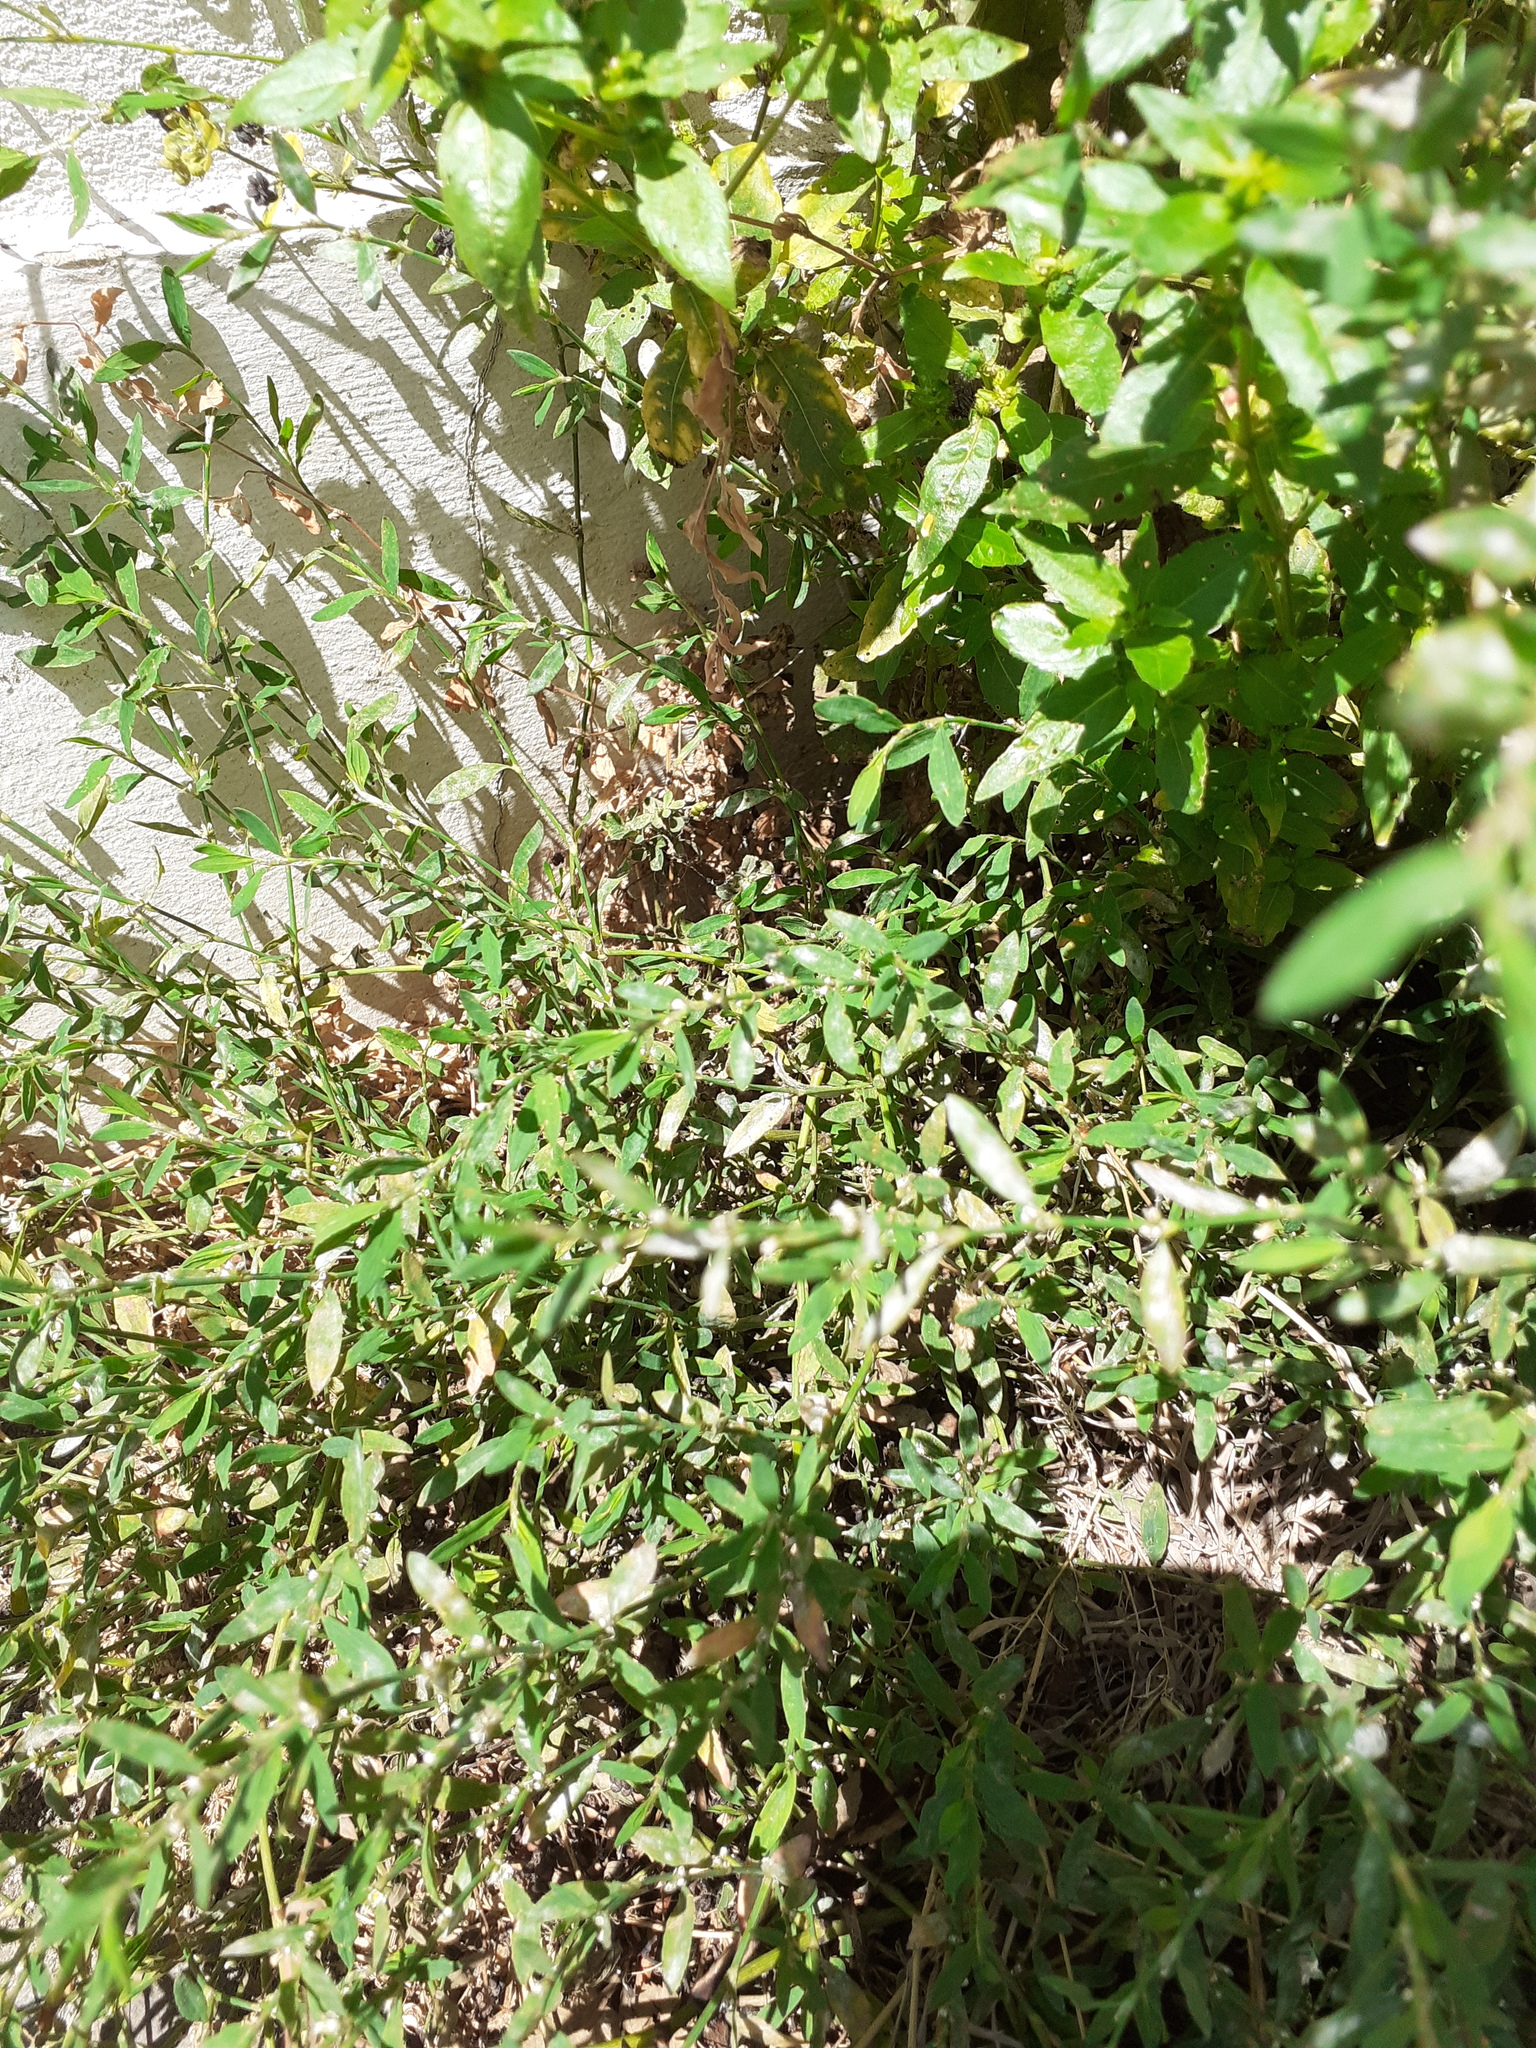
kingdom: Plantae
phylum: Tracheophyta
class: Magnoliopsida
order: Caryophyllales
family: Polygonaceae
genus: Polygonum
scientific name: Polygonum aviculare
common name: Prostrate knotweed
